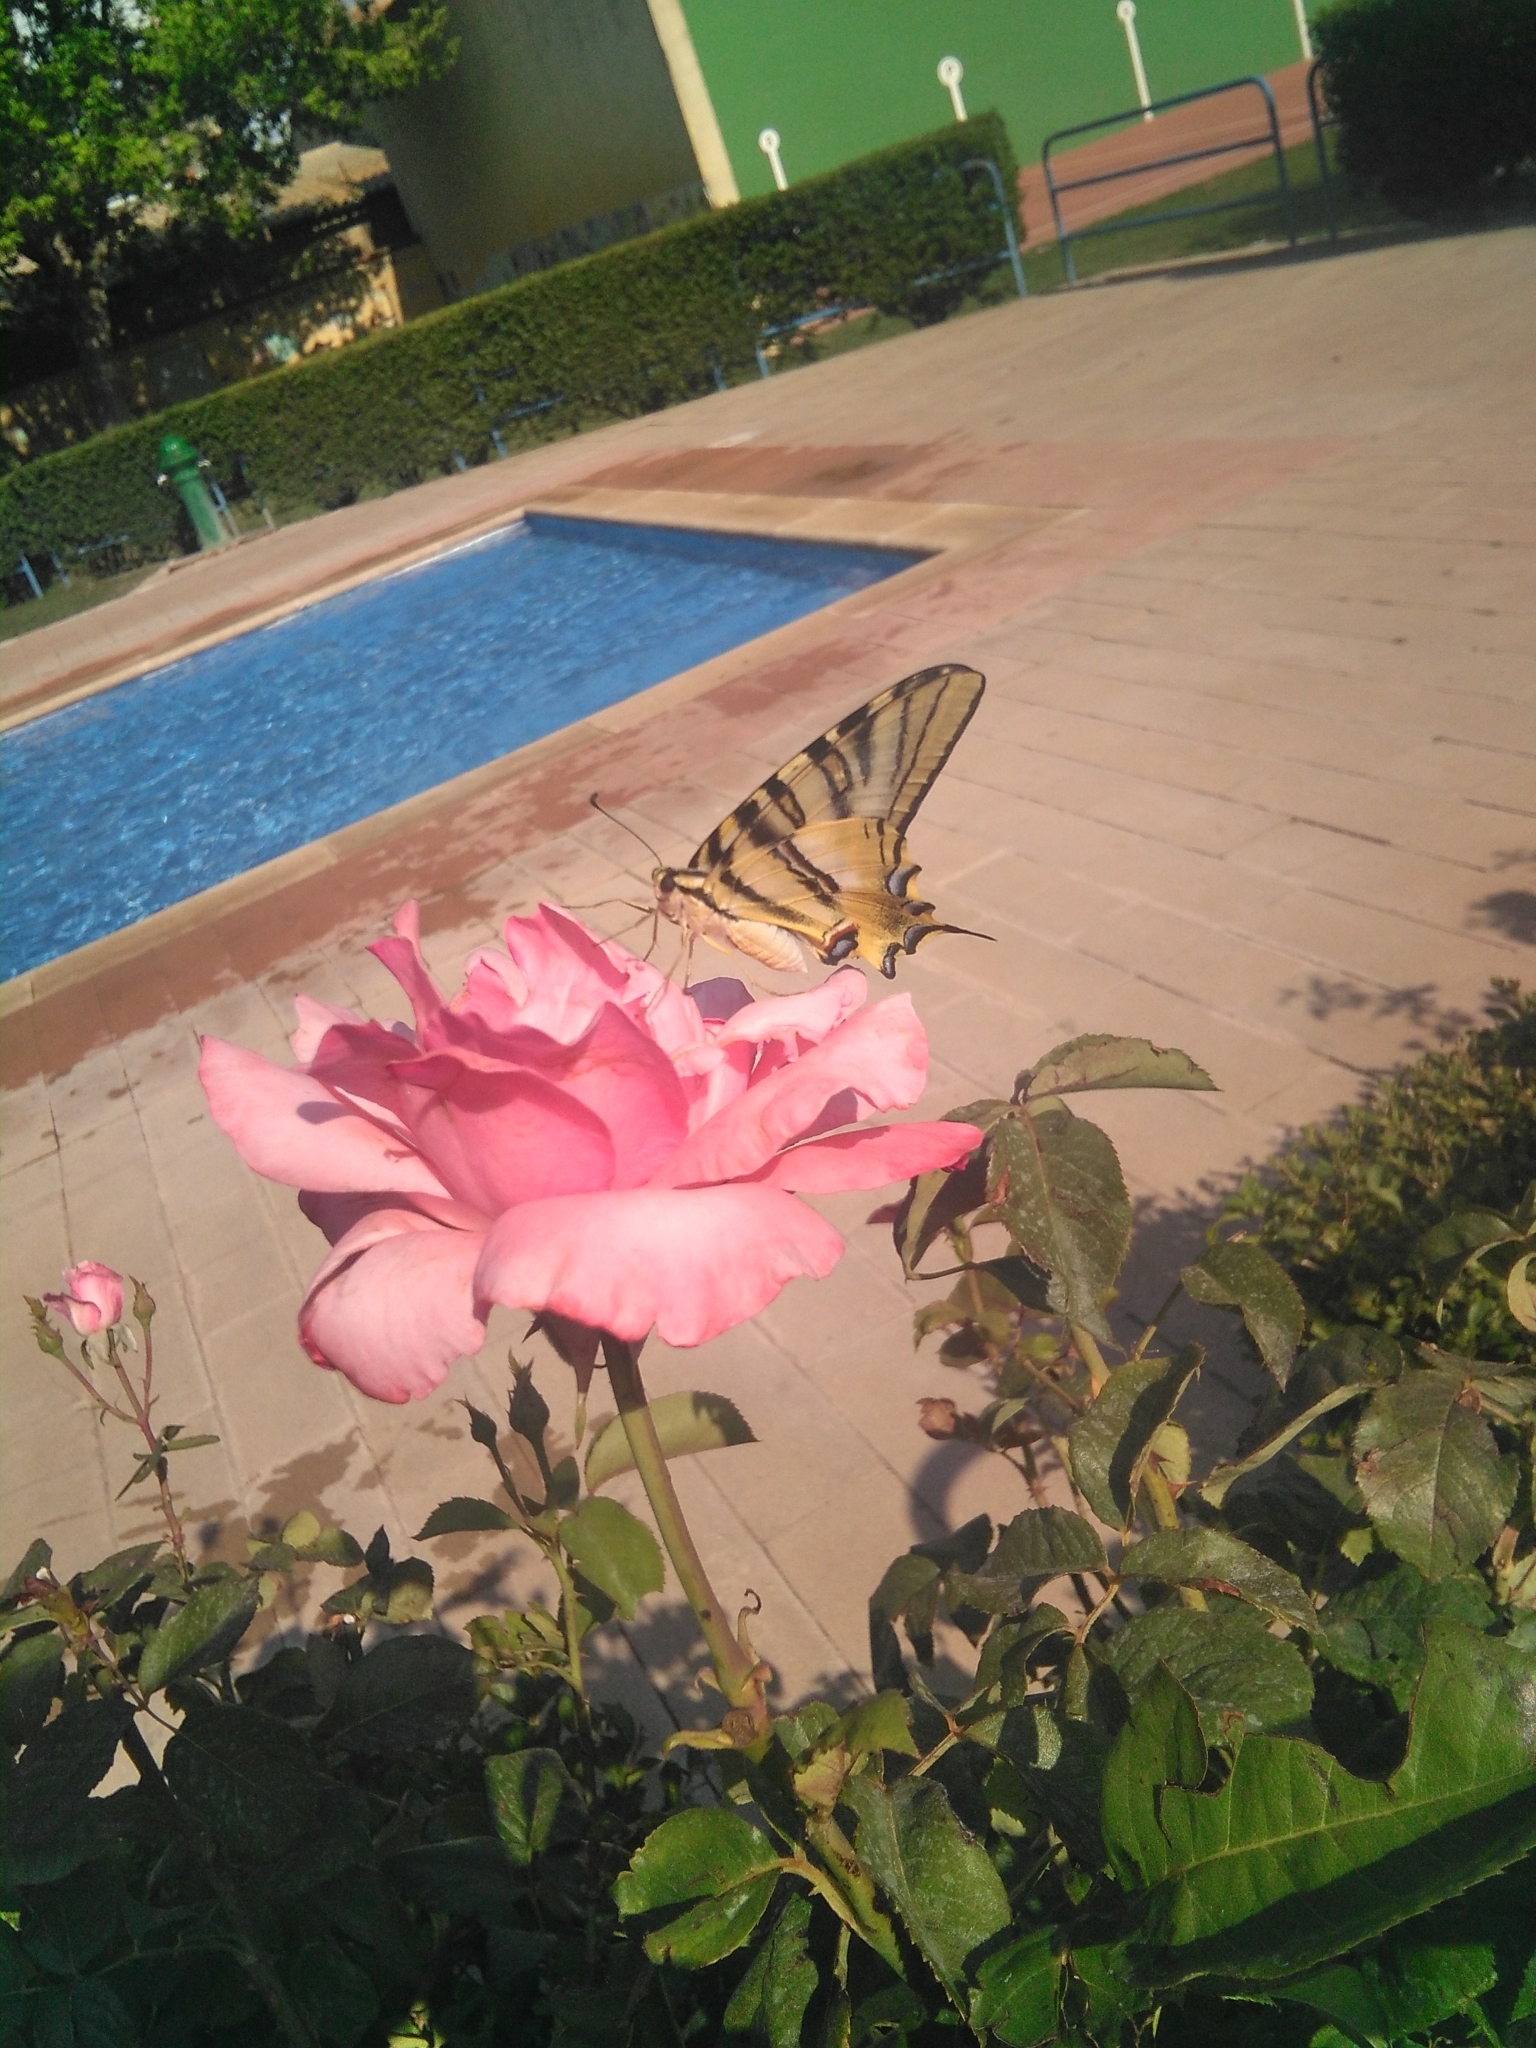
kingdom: Animalia
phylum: Arthropoda
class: Insecta
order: Lepidoptera
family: Papilionidae
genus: Iphiclides
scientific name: Iphiclides feisthamelii
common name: Iberian scarce swallowtail
